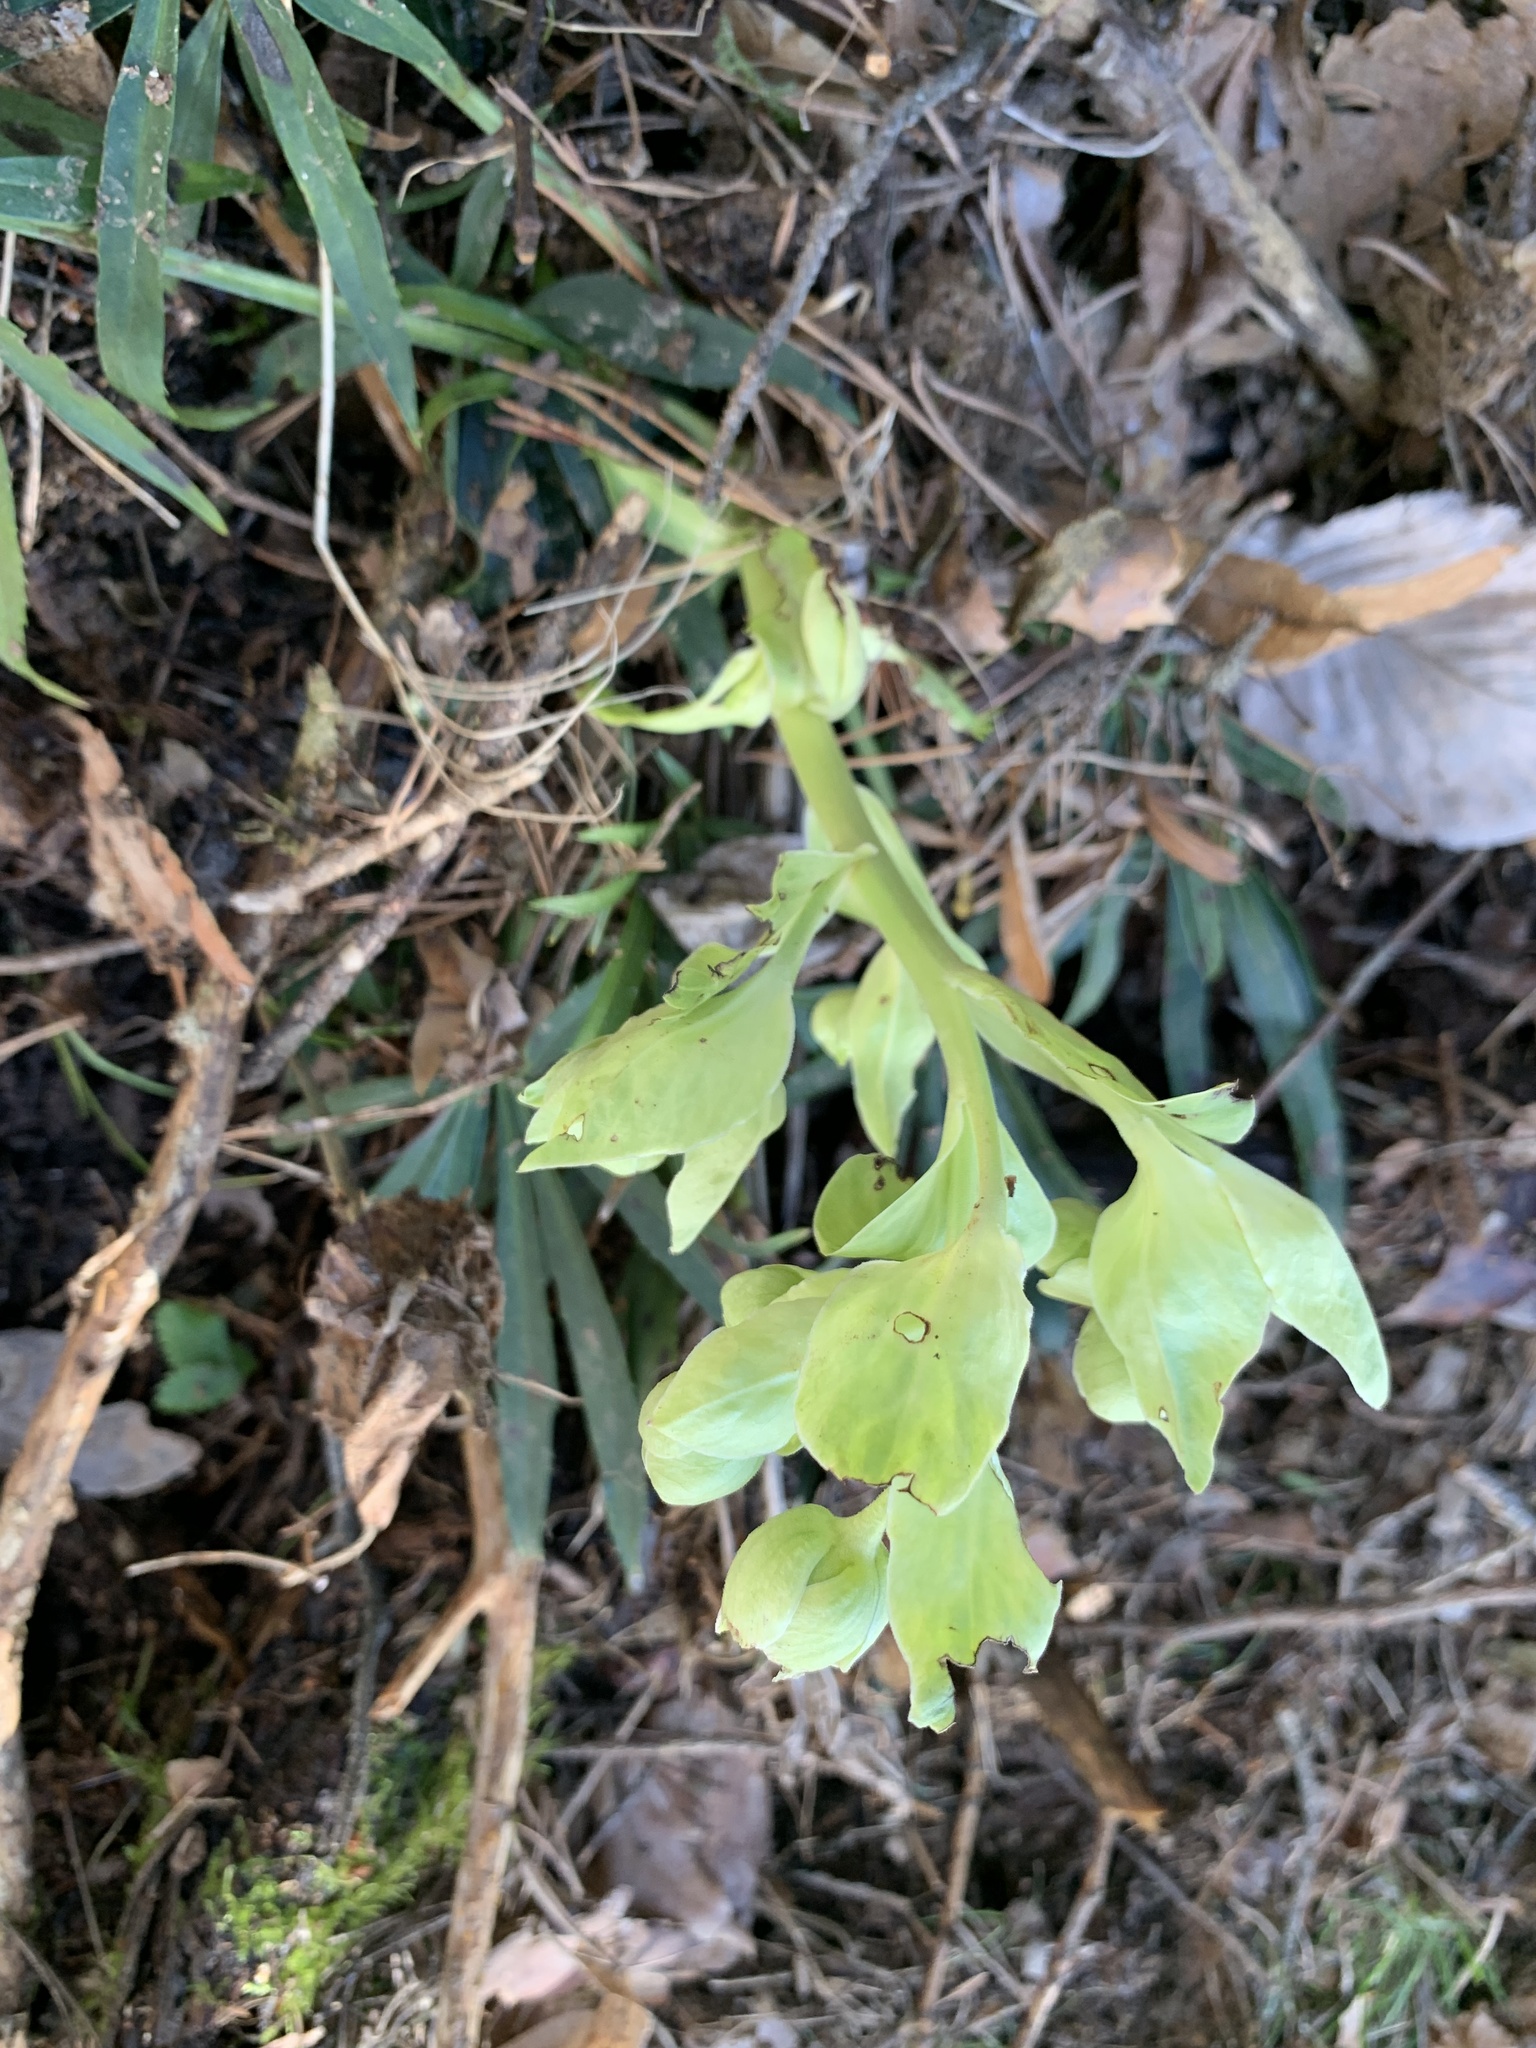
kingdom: Plantae
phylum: Tracheophyta
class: Magnoliopsida
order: Ranunculales
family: Ranunculaceae
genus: Helleborus
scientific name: Helleborus foetidus
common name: Stinking hellebore
